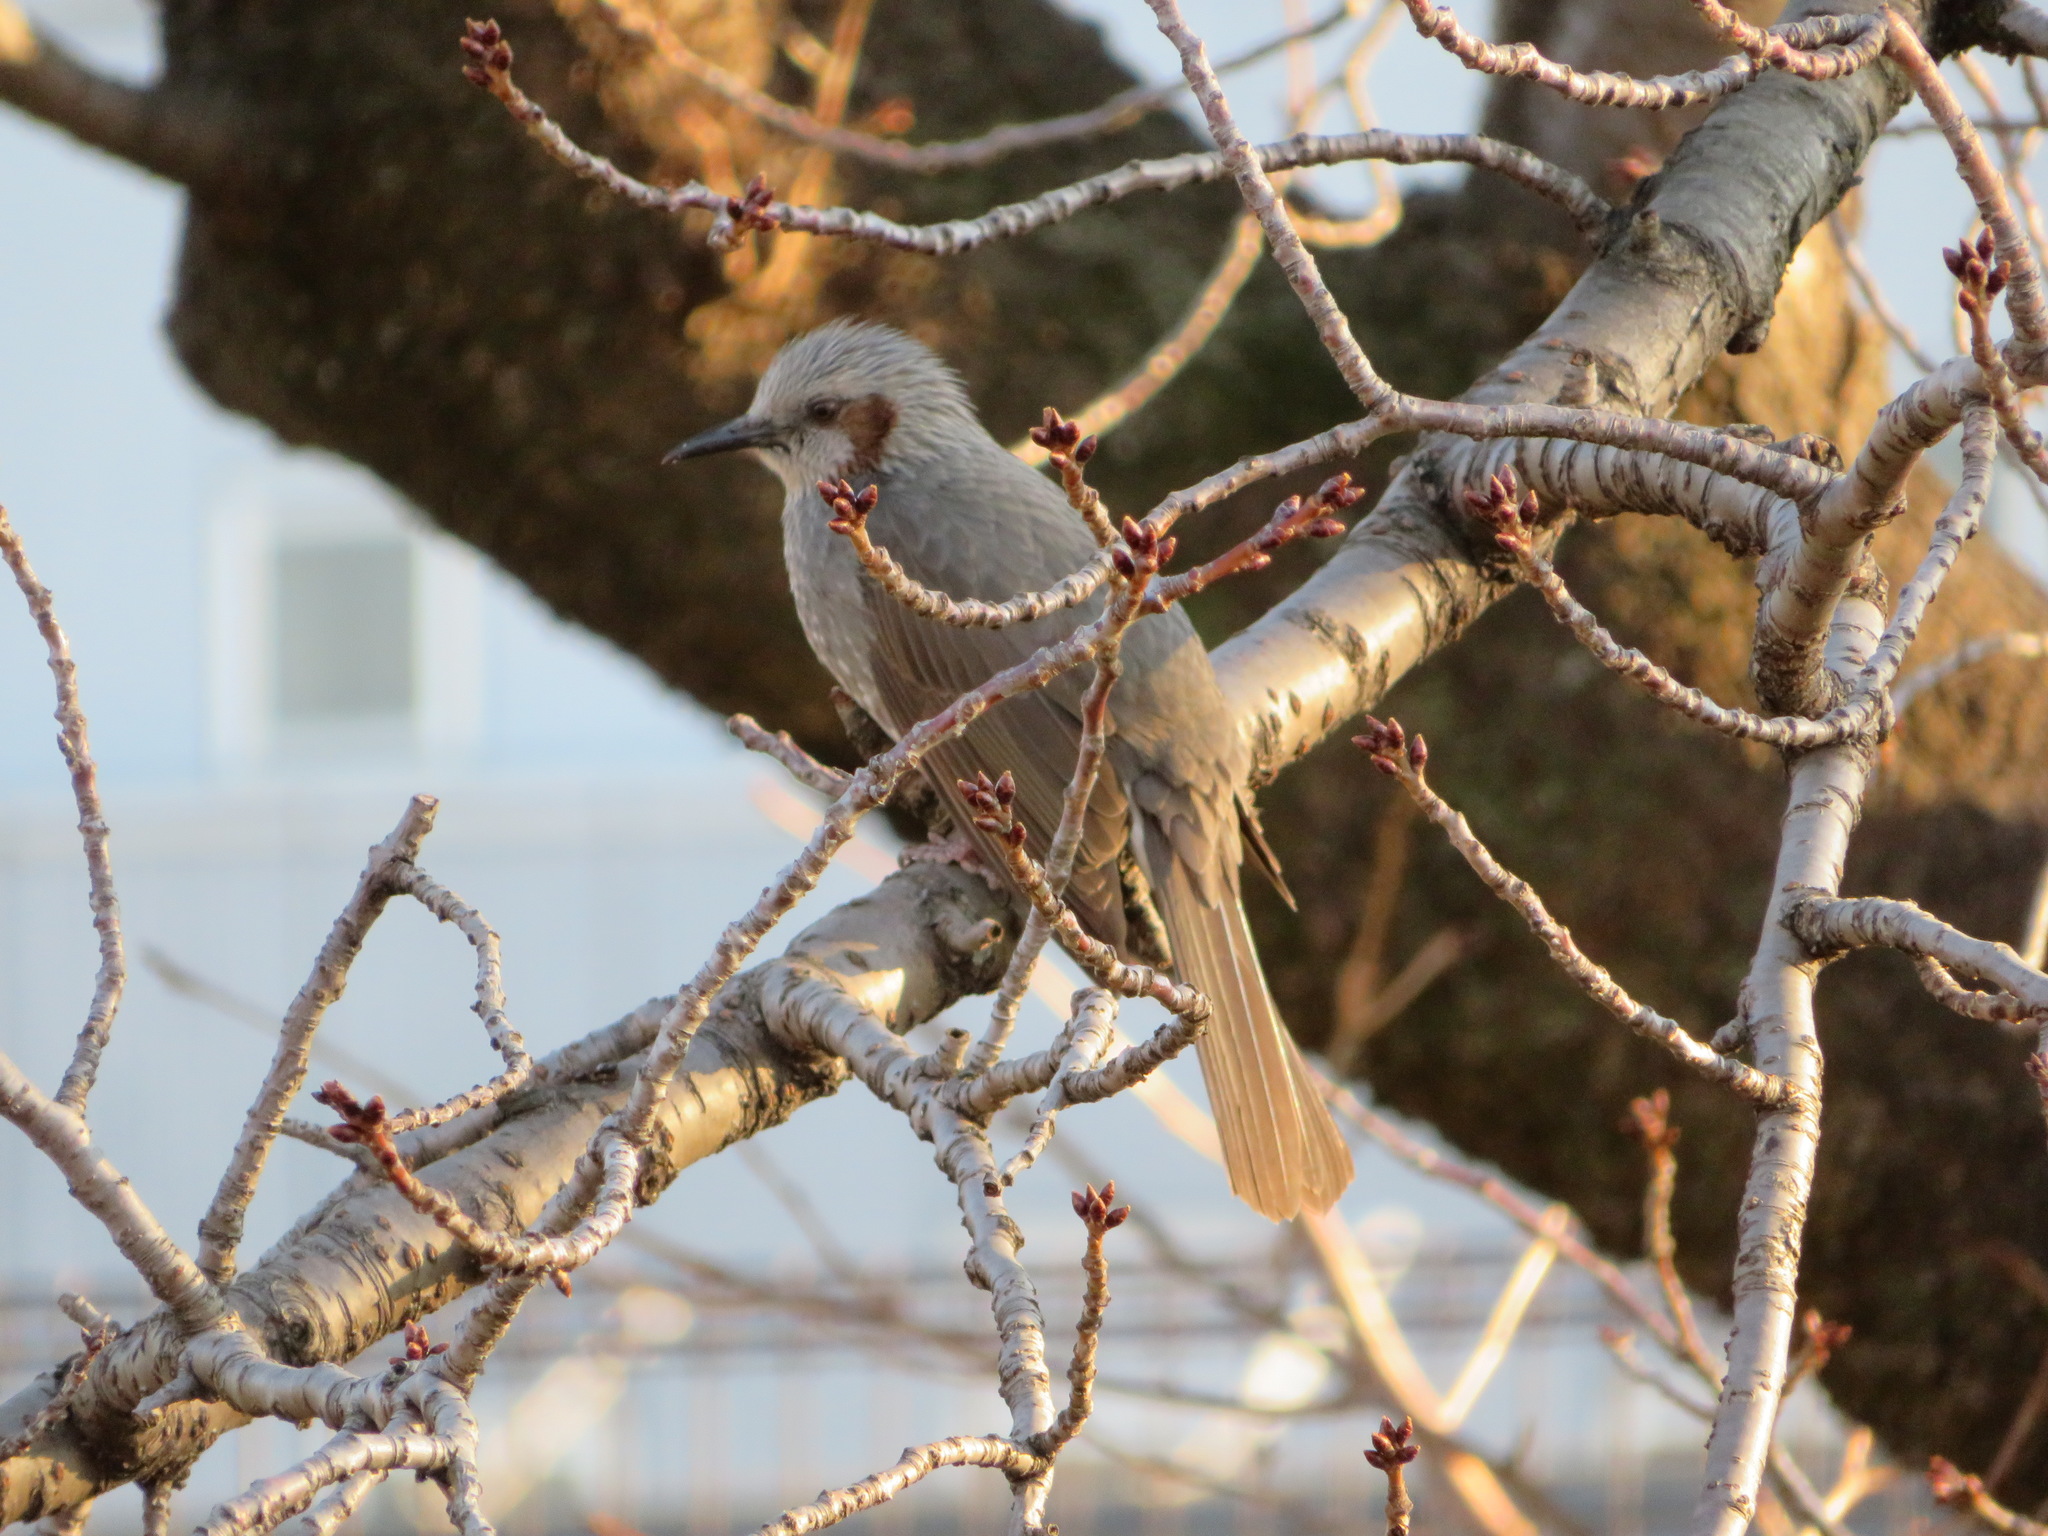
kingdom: Animalia
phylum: Chordata
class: Aves
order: Passeriformes
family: Pycnonotidae
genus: Hypsipetes
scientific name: Hypsipetes amaurotis
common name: Brown-eared bulbul
